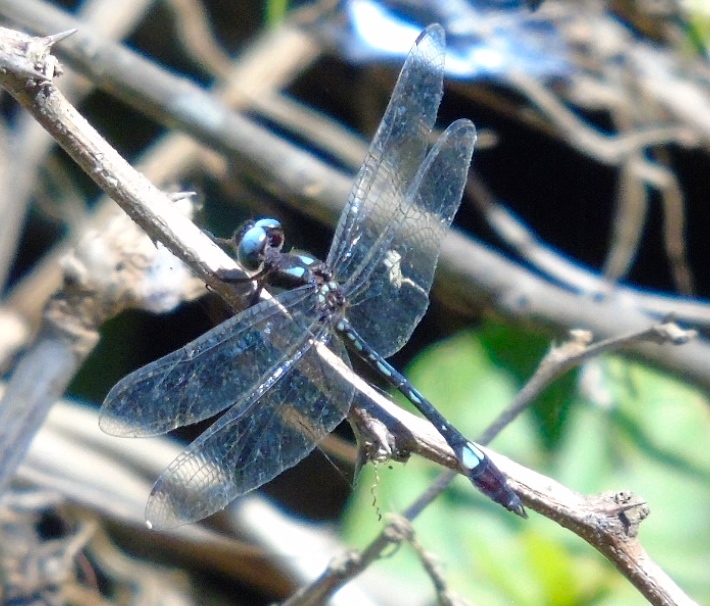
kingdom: Animalia
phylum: Arthropoda
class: Insecta
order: Odonata
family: Libellulidae
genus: Macrothemis
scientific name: Macrothemis pseudimitans
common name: White-tailed sylph
